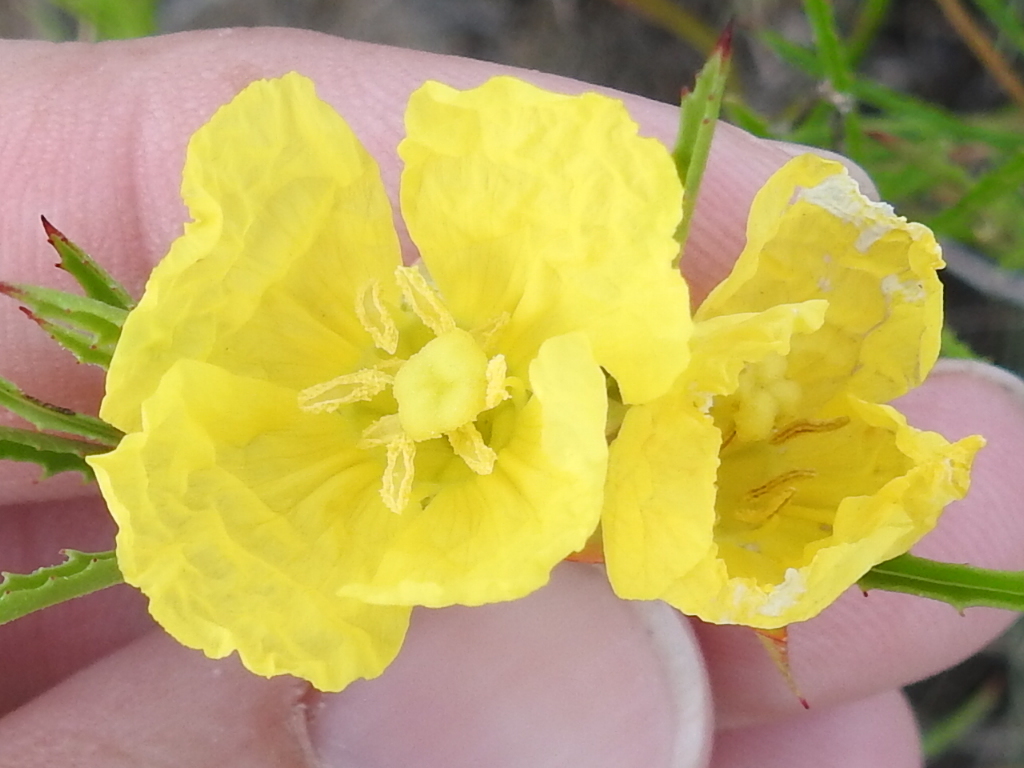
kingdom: Plantae
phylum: Tracheophyta
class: Magnoliopsida
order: Myrtales
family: Onagraceae
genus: Oenothera
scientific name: Oenothera
